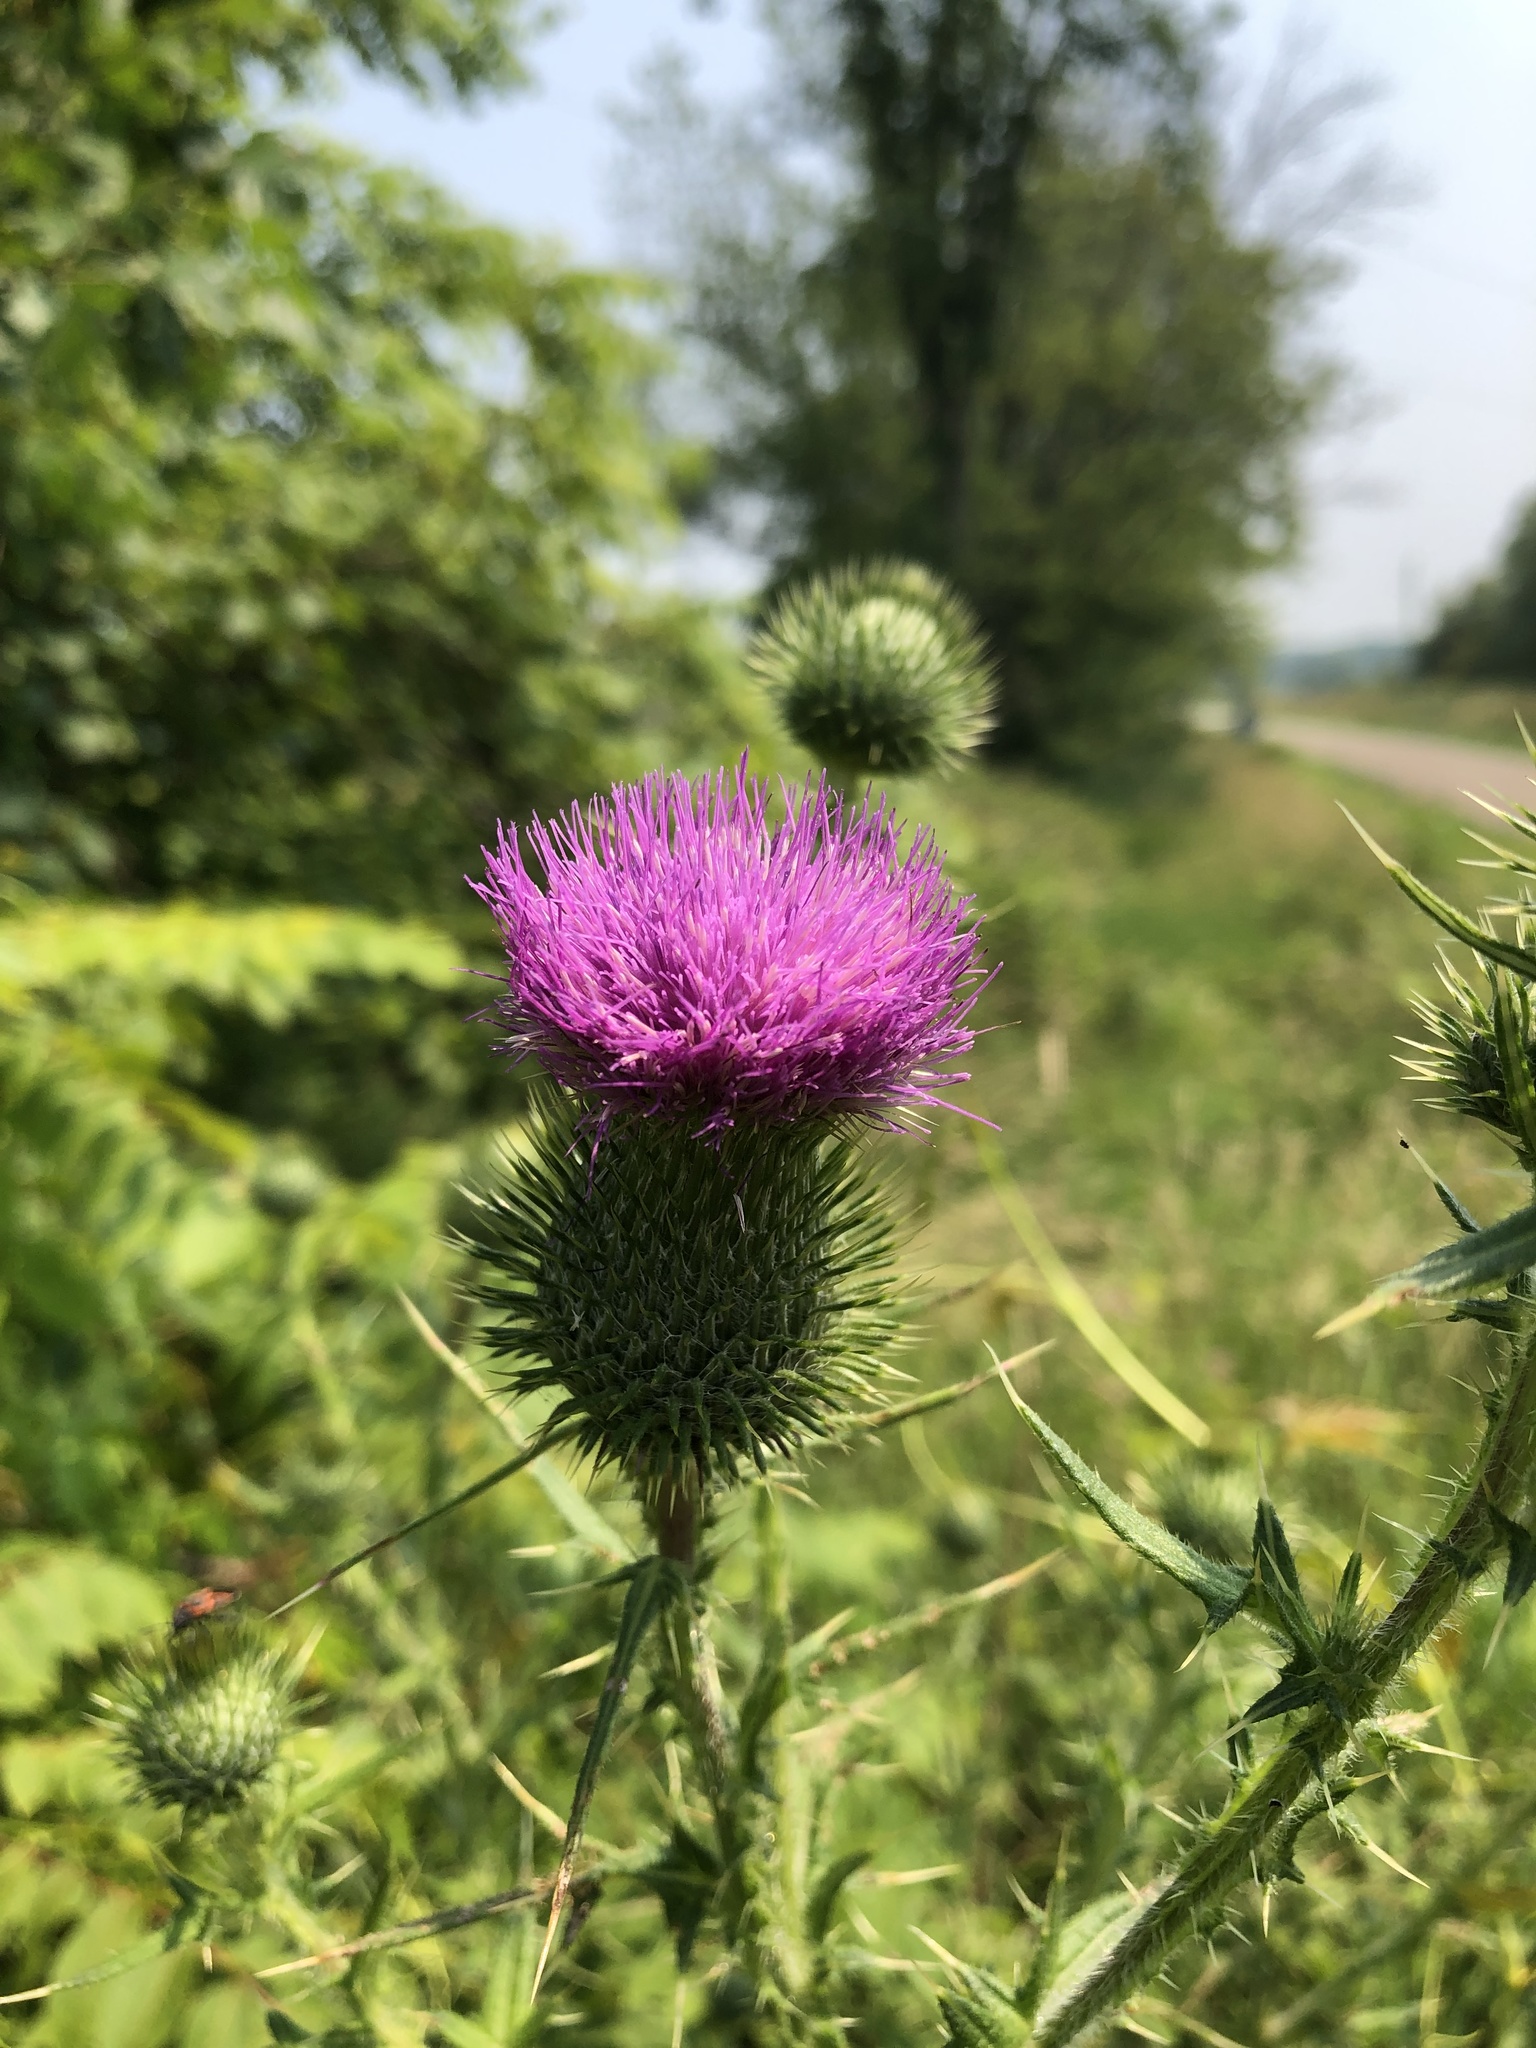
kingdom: Plantae
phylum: Tracheophyta
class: Magnoliopsida
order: Asterales
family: Asteraceae
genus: Cirsium
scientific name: Cirsium vulgare
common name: Bull thistle
